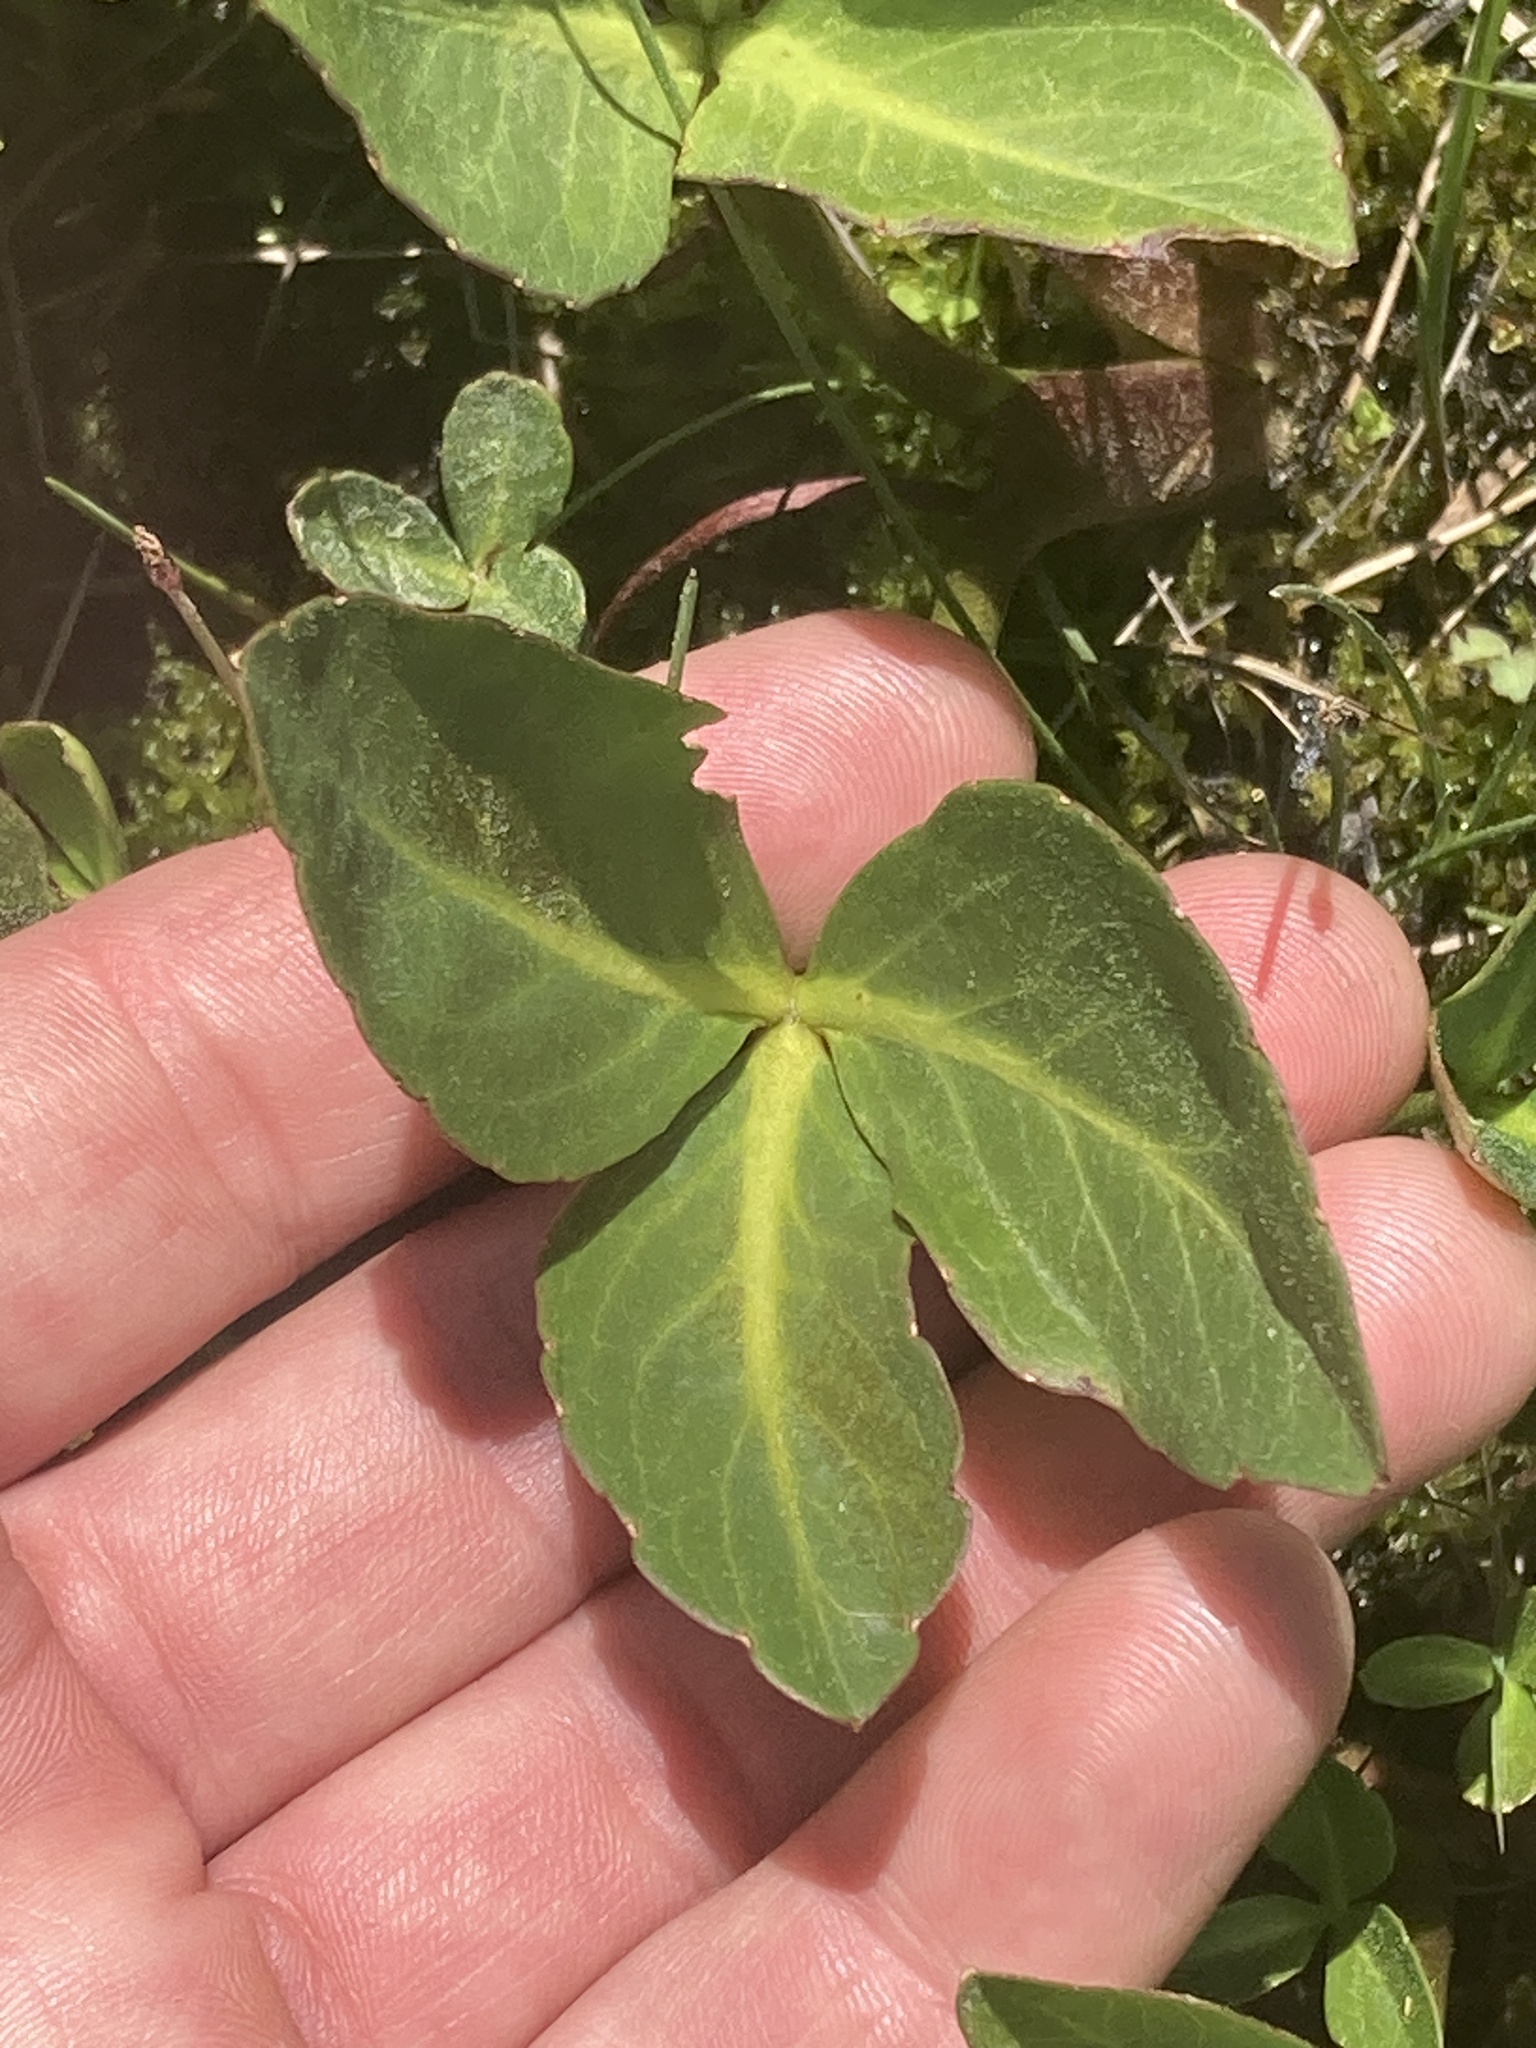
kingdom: Plantae
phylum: Tracheophyta
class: Magnoliopsida
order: Asterales
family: Menyanthaceae
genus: Menyanthes
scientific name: Menyanthes trifoliata
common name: Bogbean
